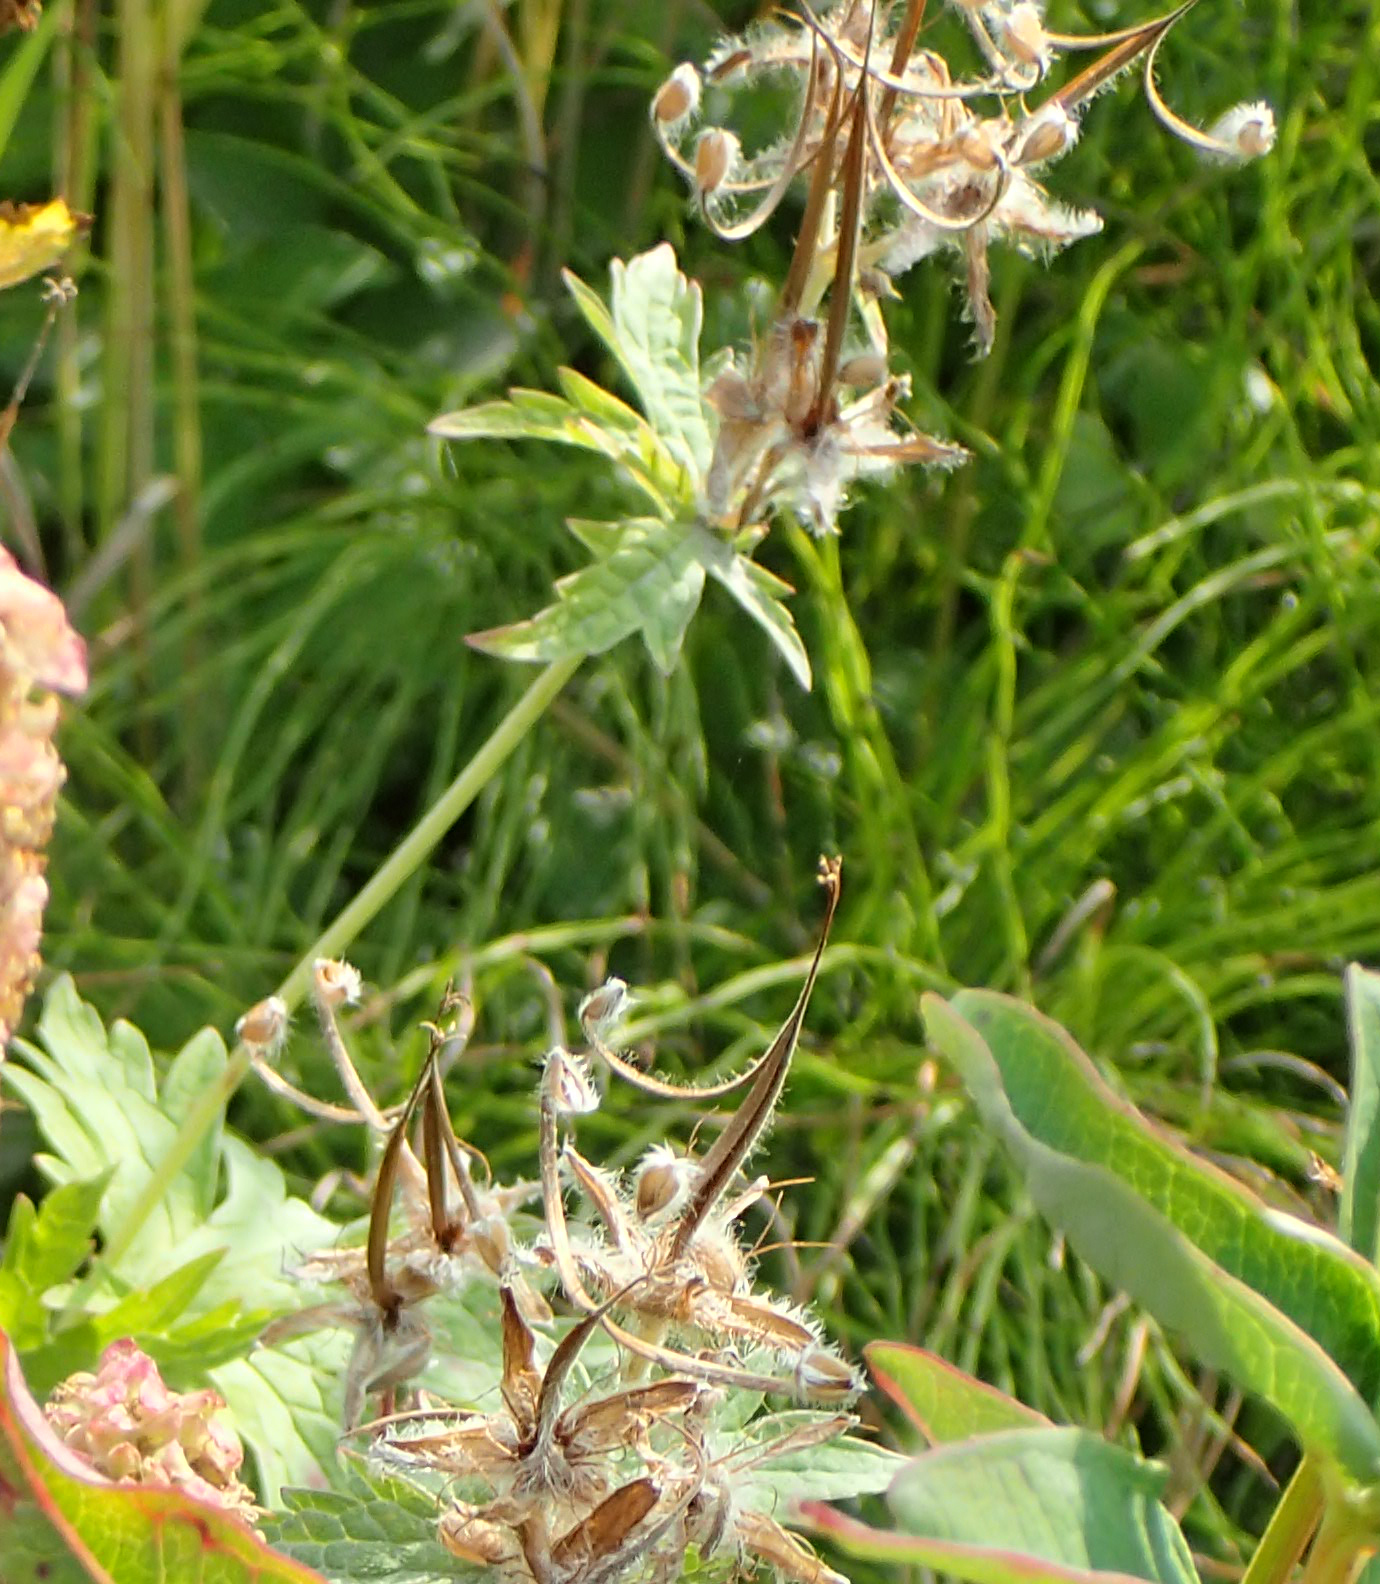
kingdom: Plantae
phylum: Tracheophyta
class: Magnoliopsida
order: Geraniales
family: Geraniaceae
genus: Geranium
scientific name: Geranium erianthum
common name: Northern crane's-bill
